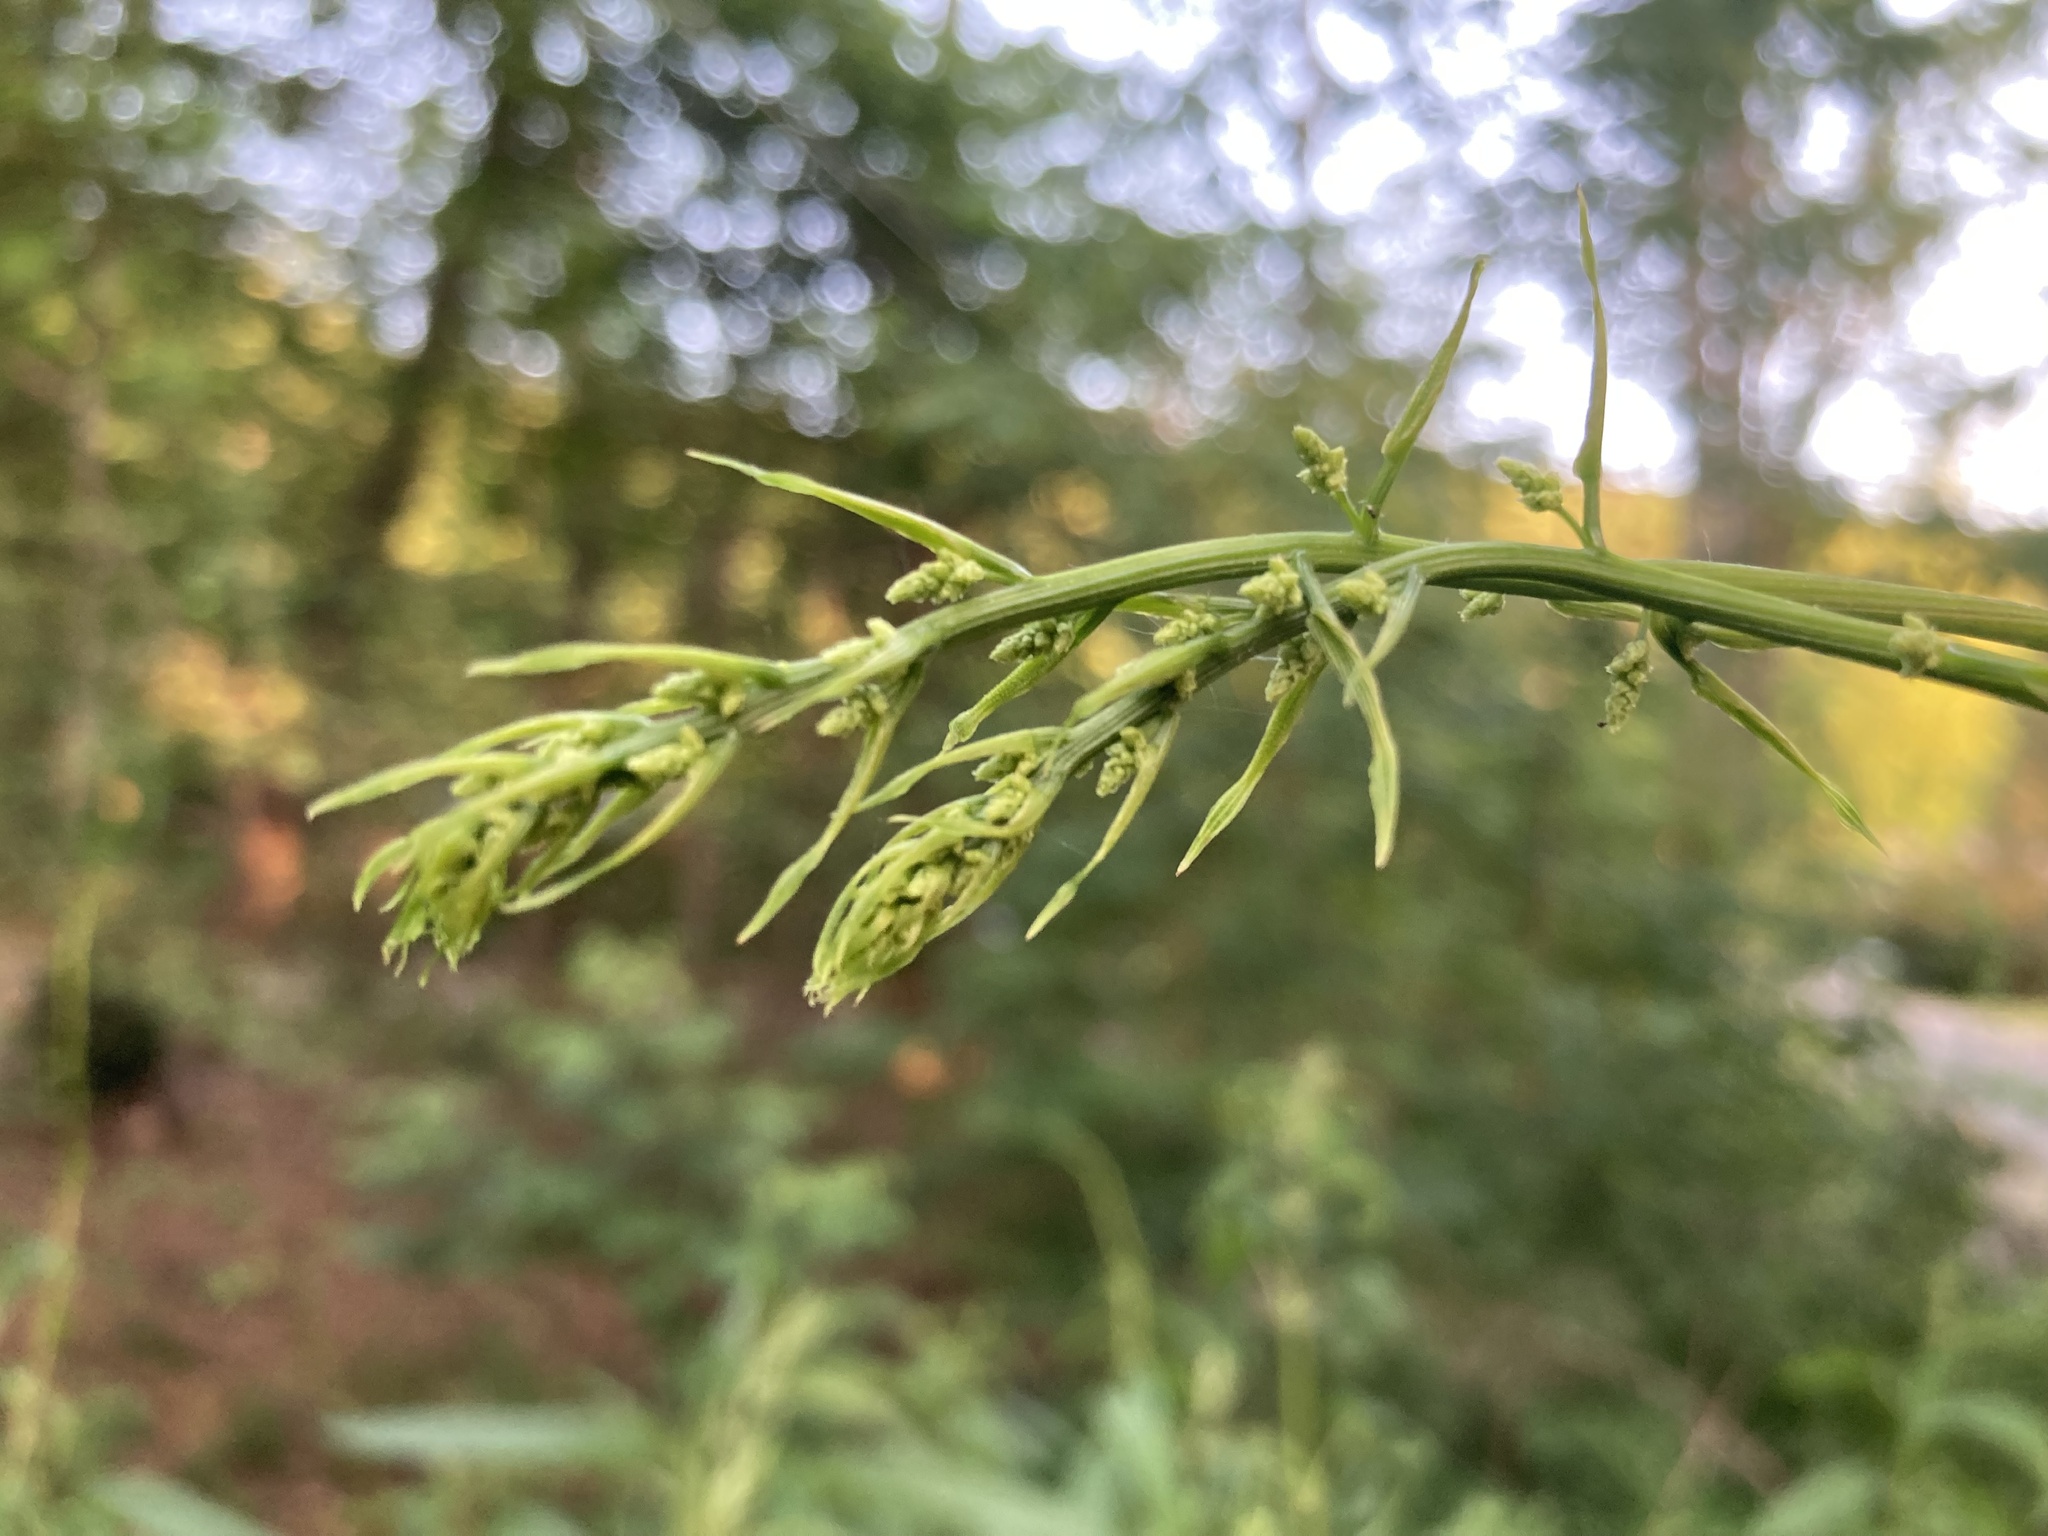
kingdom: Plantae
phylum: Tracheophyta
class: Liliopsida
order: Dioscoreales
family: Dioscoreaceae
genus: Dioscorea
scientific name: Dioscorea villosa
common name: Wild yam
